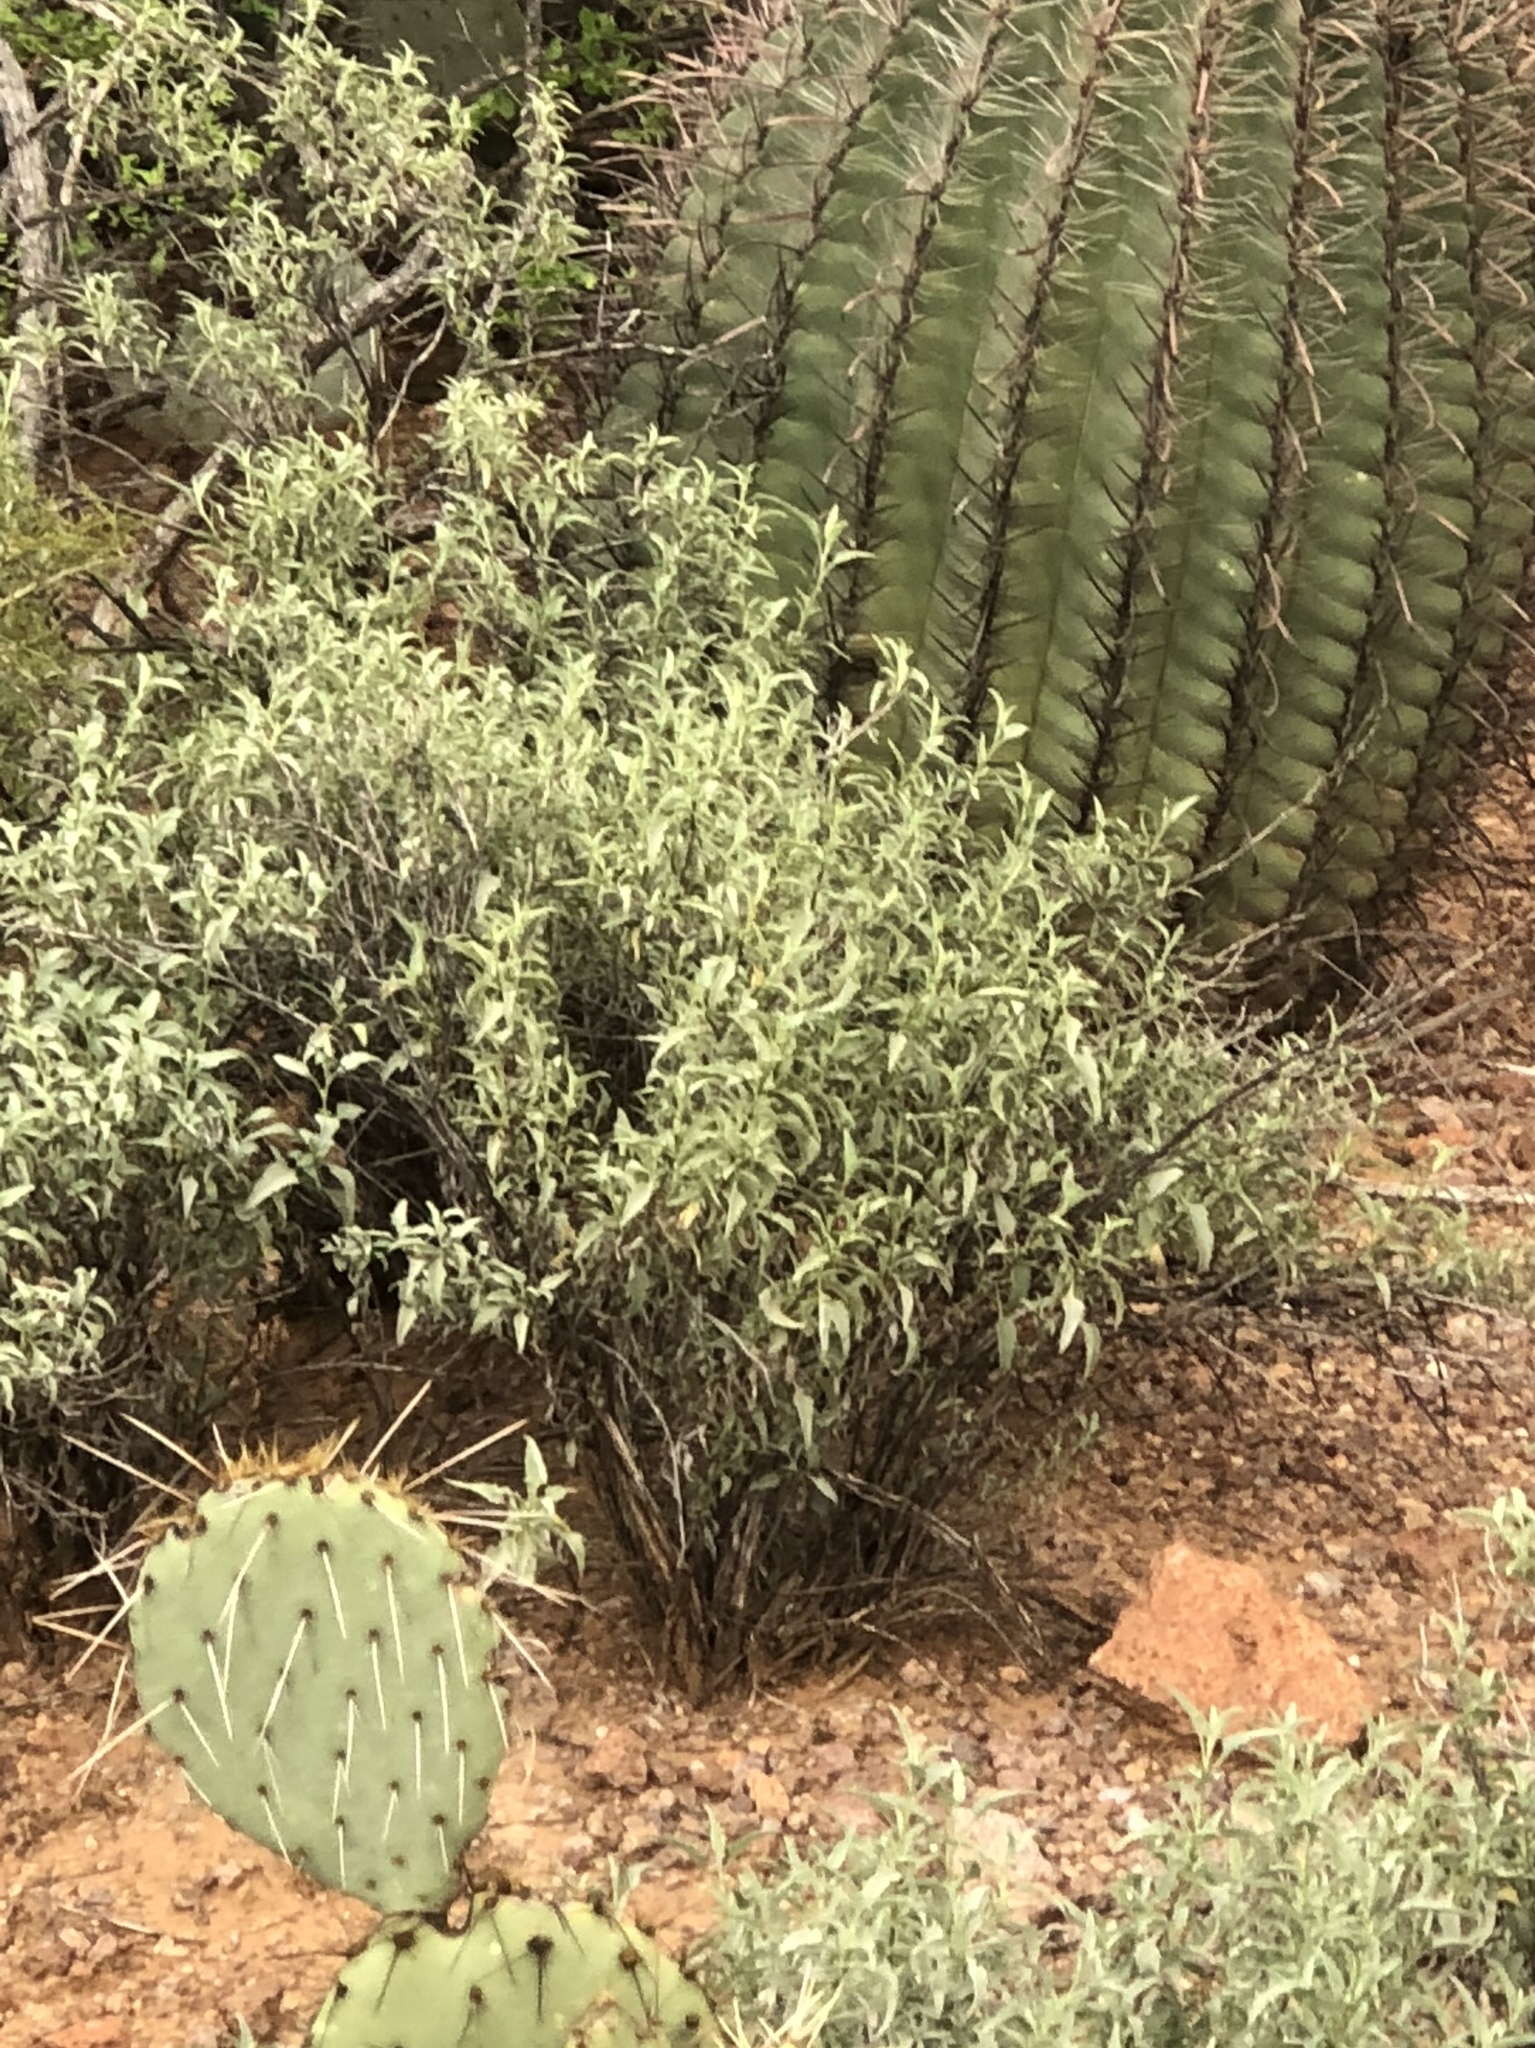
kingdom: Plantae
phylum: Tracheophyta
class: Magnoliopsida
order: Asterales
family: Asteraceae
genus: Ambrosia
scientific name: Ambrosia deltoidea
